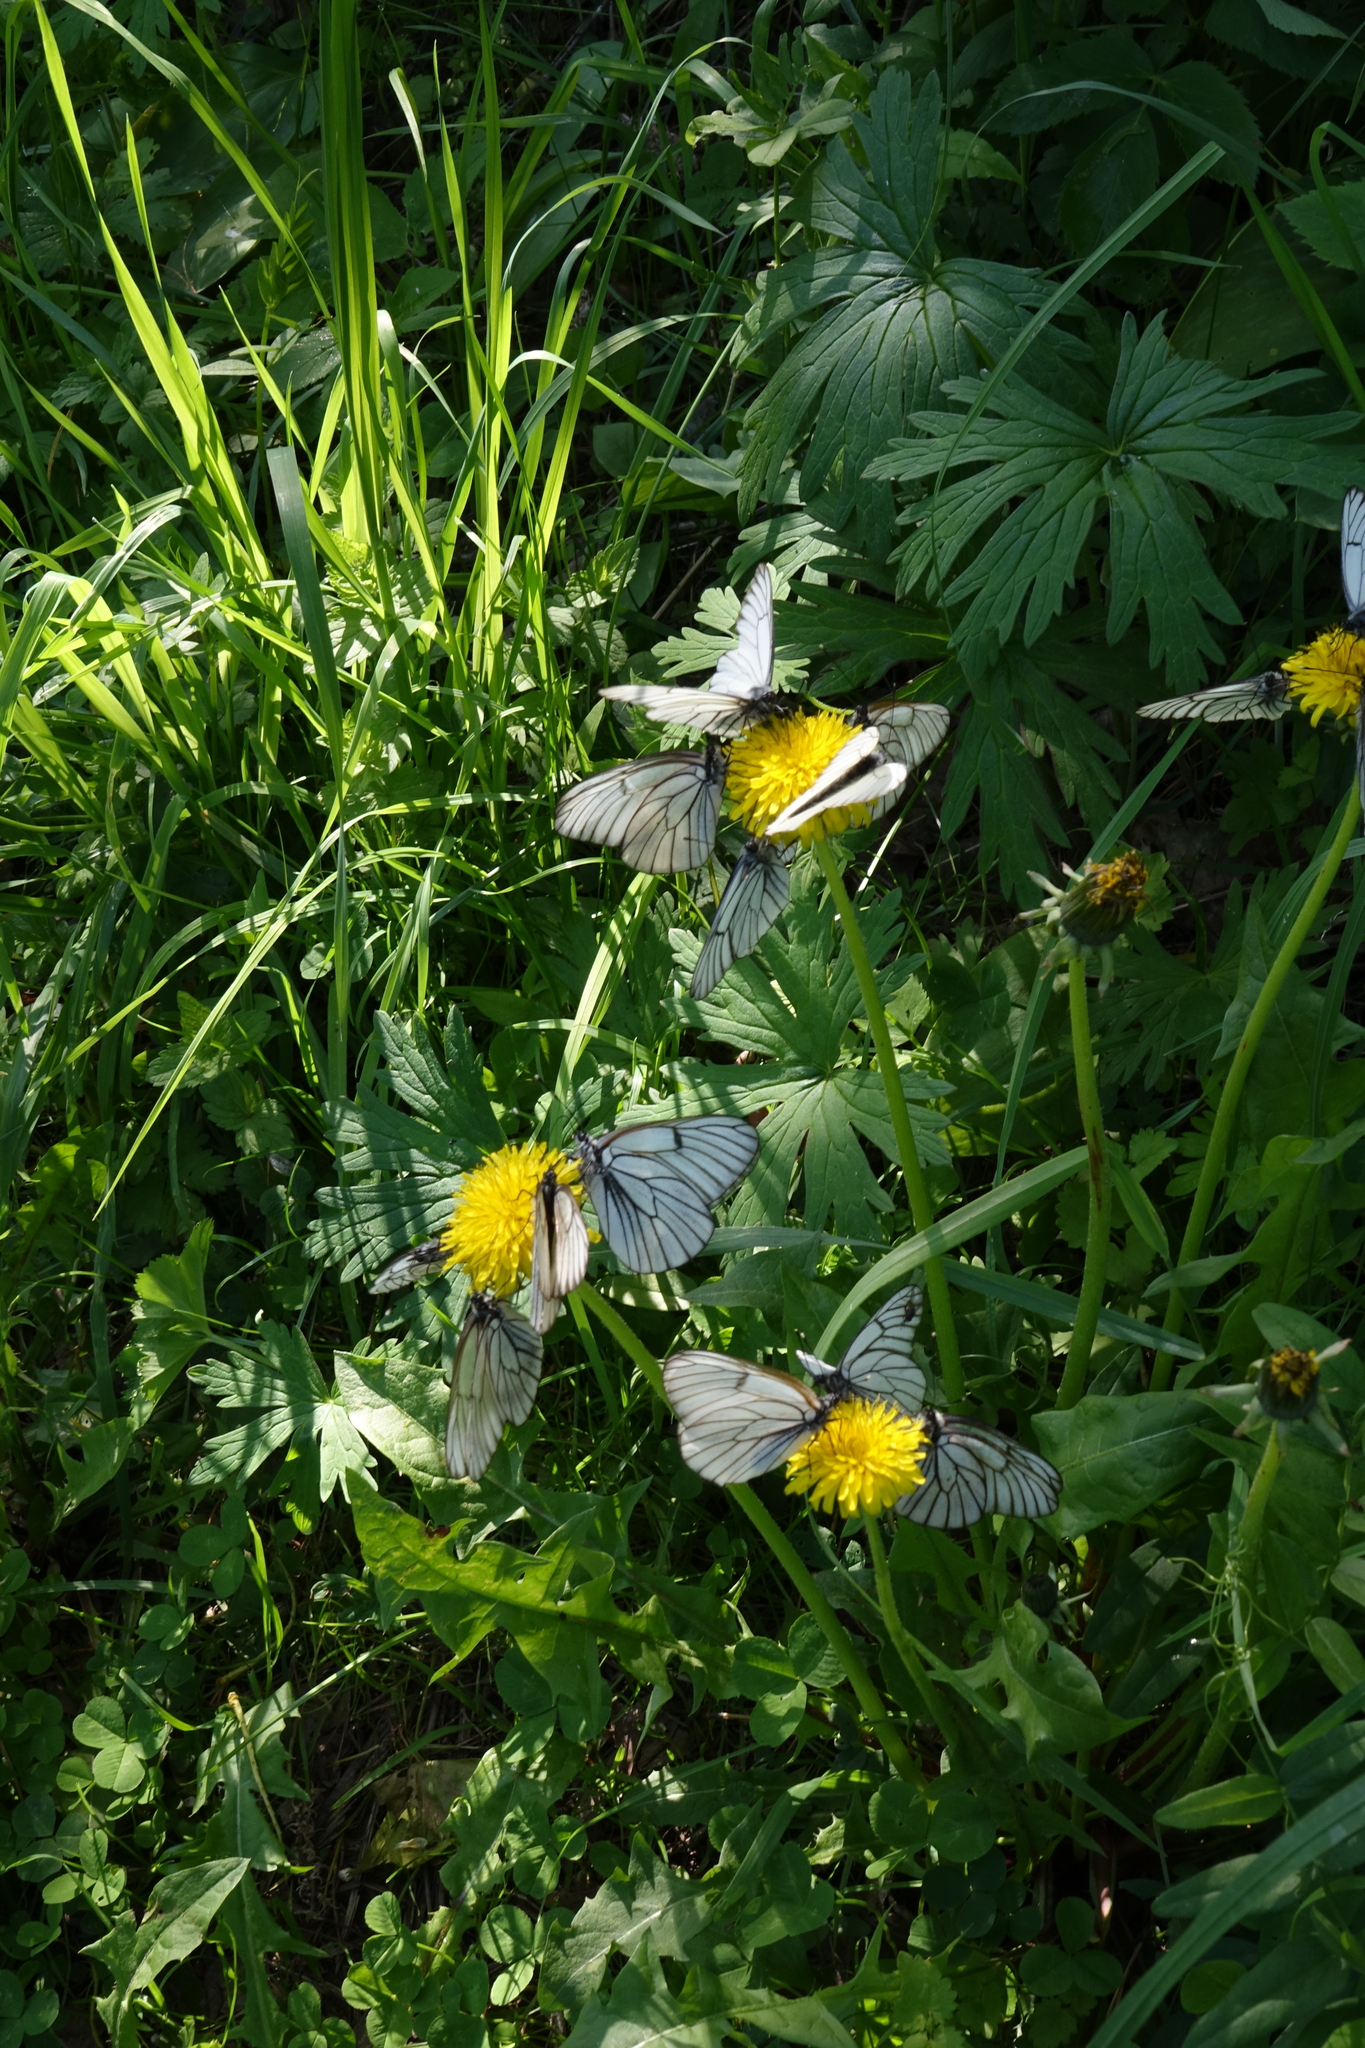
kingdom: Animalia
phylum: Arthropoda
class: Insecta
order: Lepidoptera
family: Pieridae
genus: Aporia
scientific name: Aporia crataegi
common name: Black-veined white
